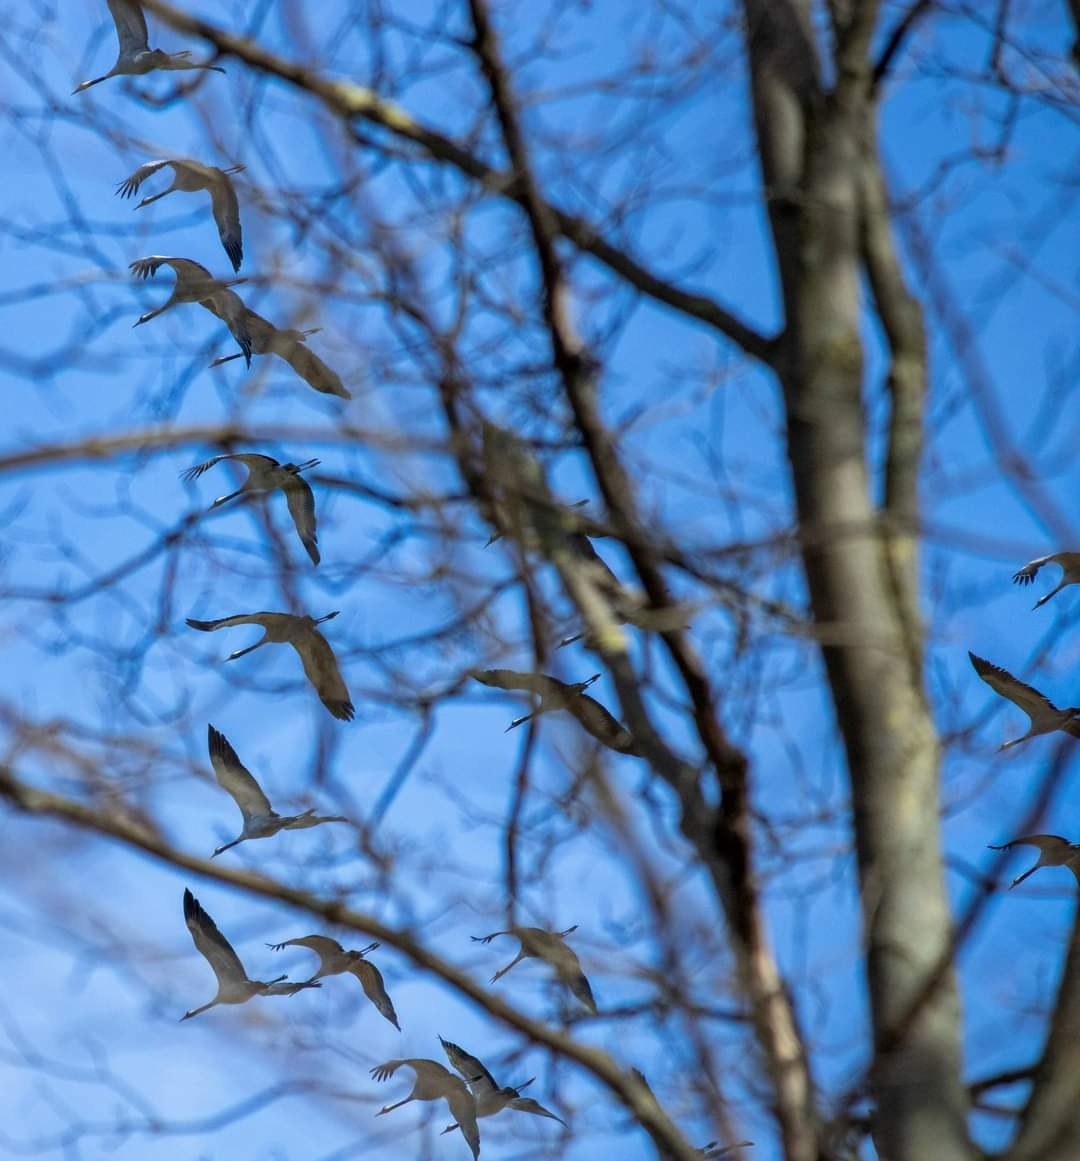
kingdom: Animalia
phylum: Chordata
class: Aves
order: Gruiformes
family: Gruidae
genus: Grus
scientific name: Grus grus
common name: Common crane
